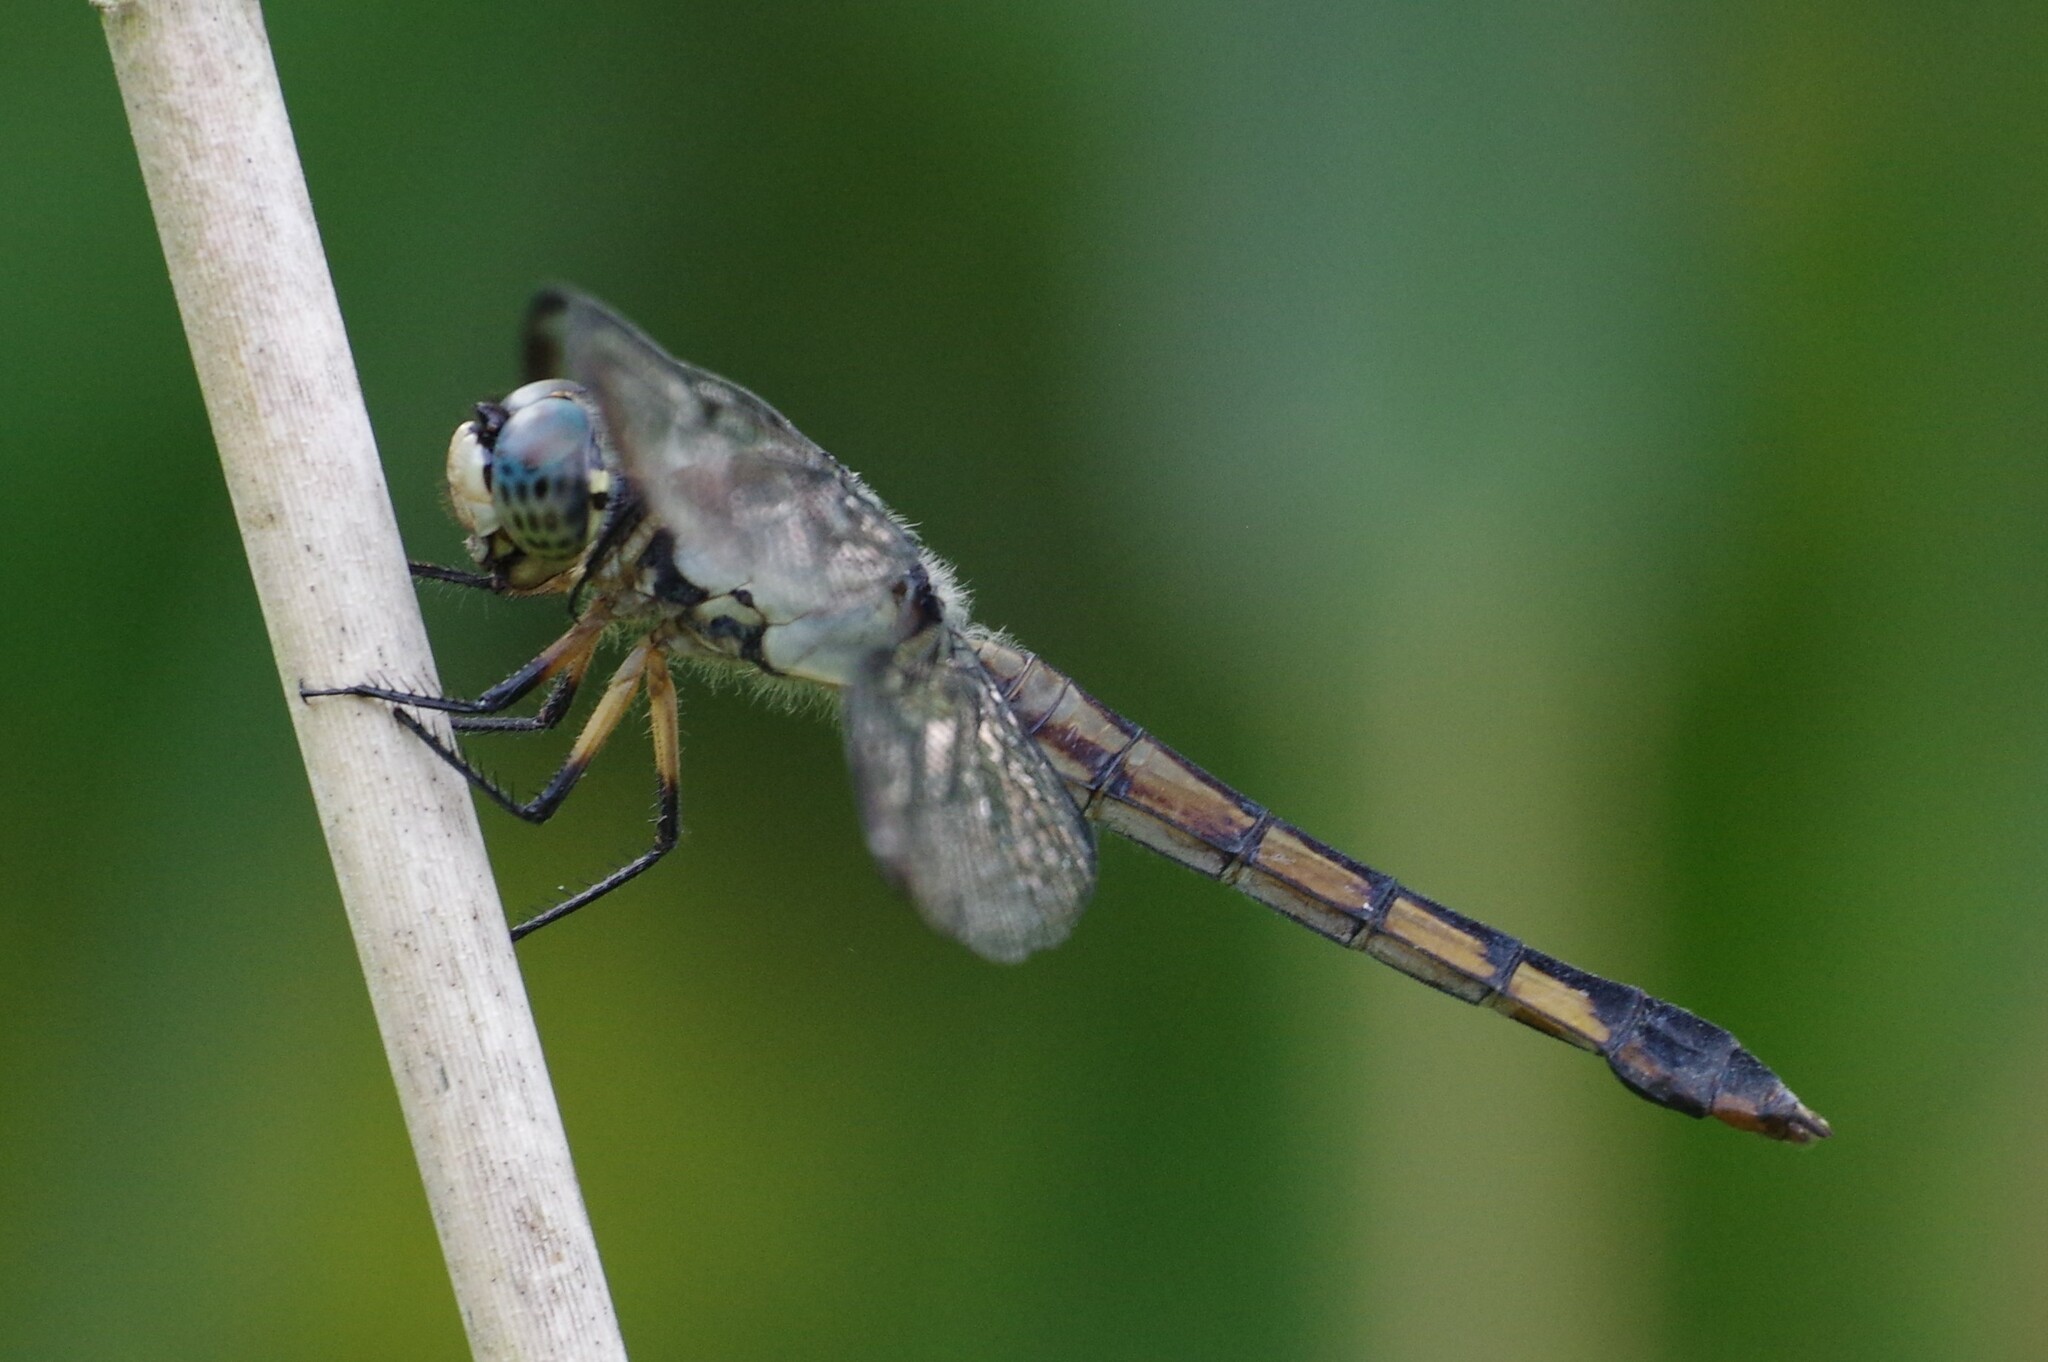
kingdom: Animalia
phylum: Arthropoda
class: Insecta
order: Odonata
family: Libellulidae
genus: Libellula
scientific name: Libellula vibrans
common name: Great blue skimmer
